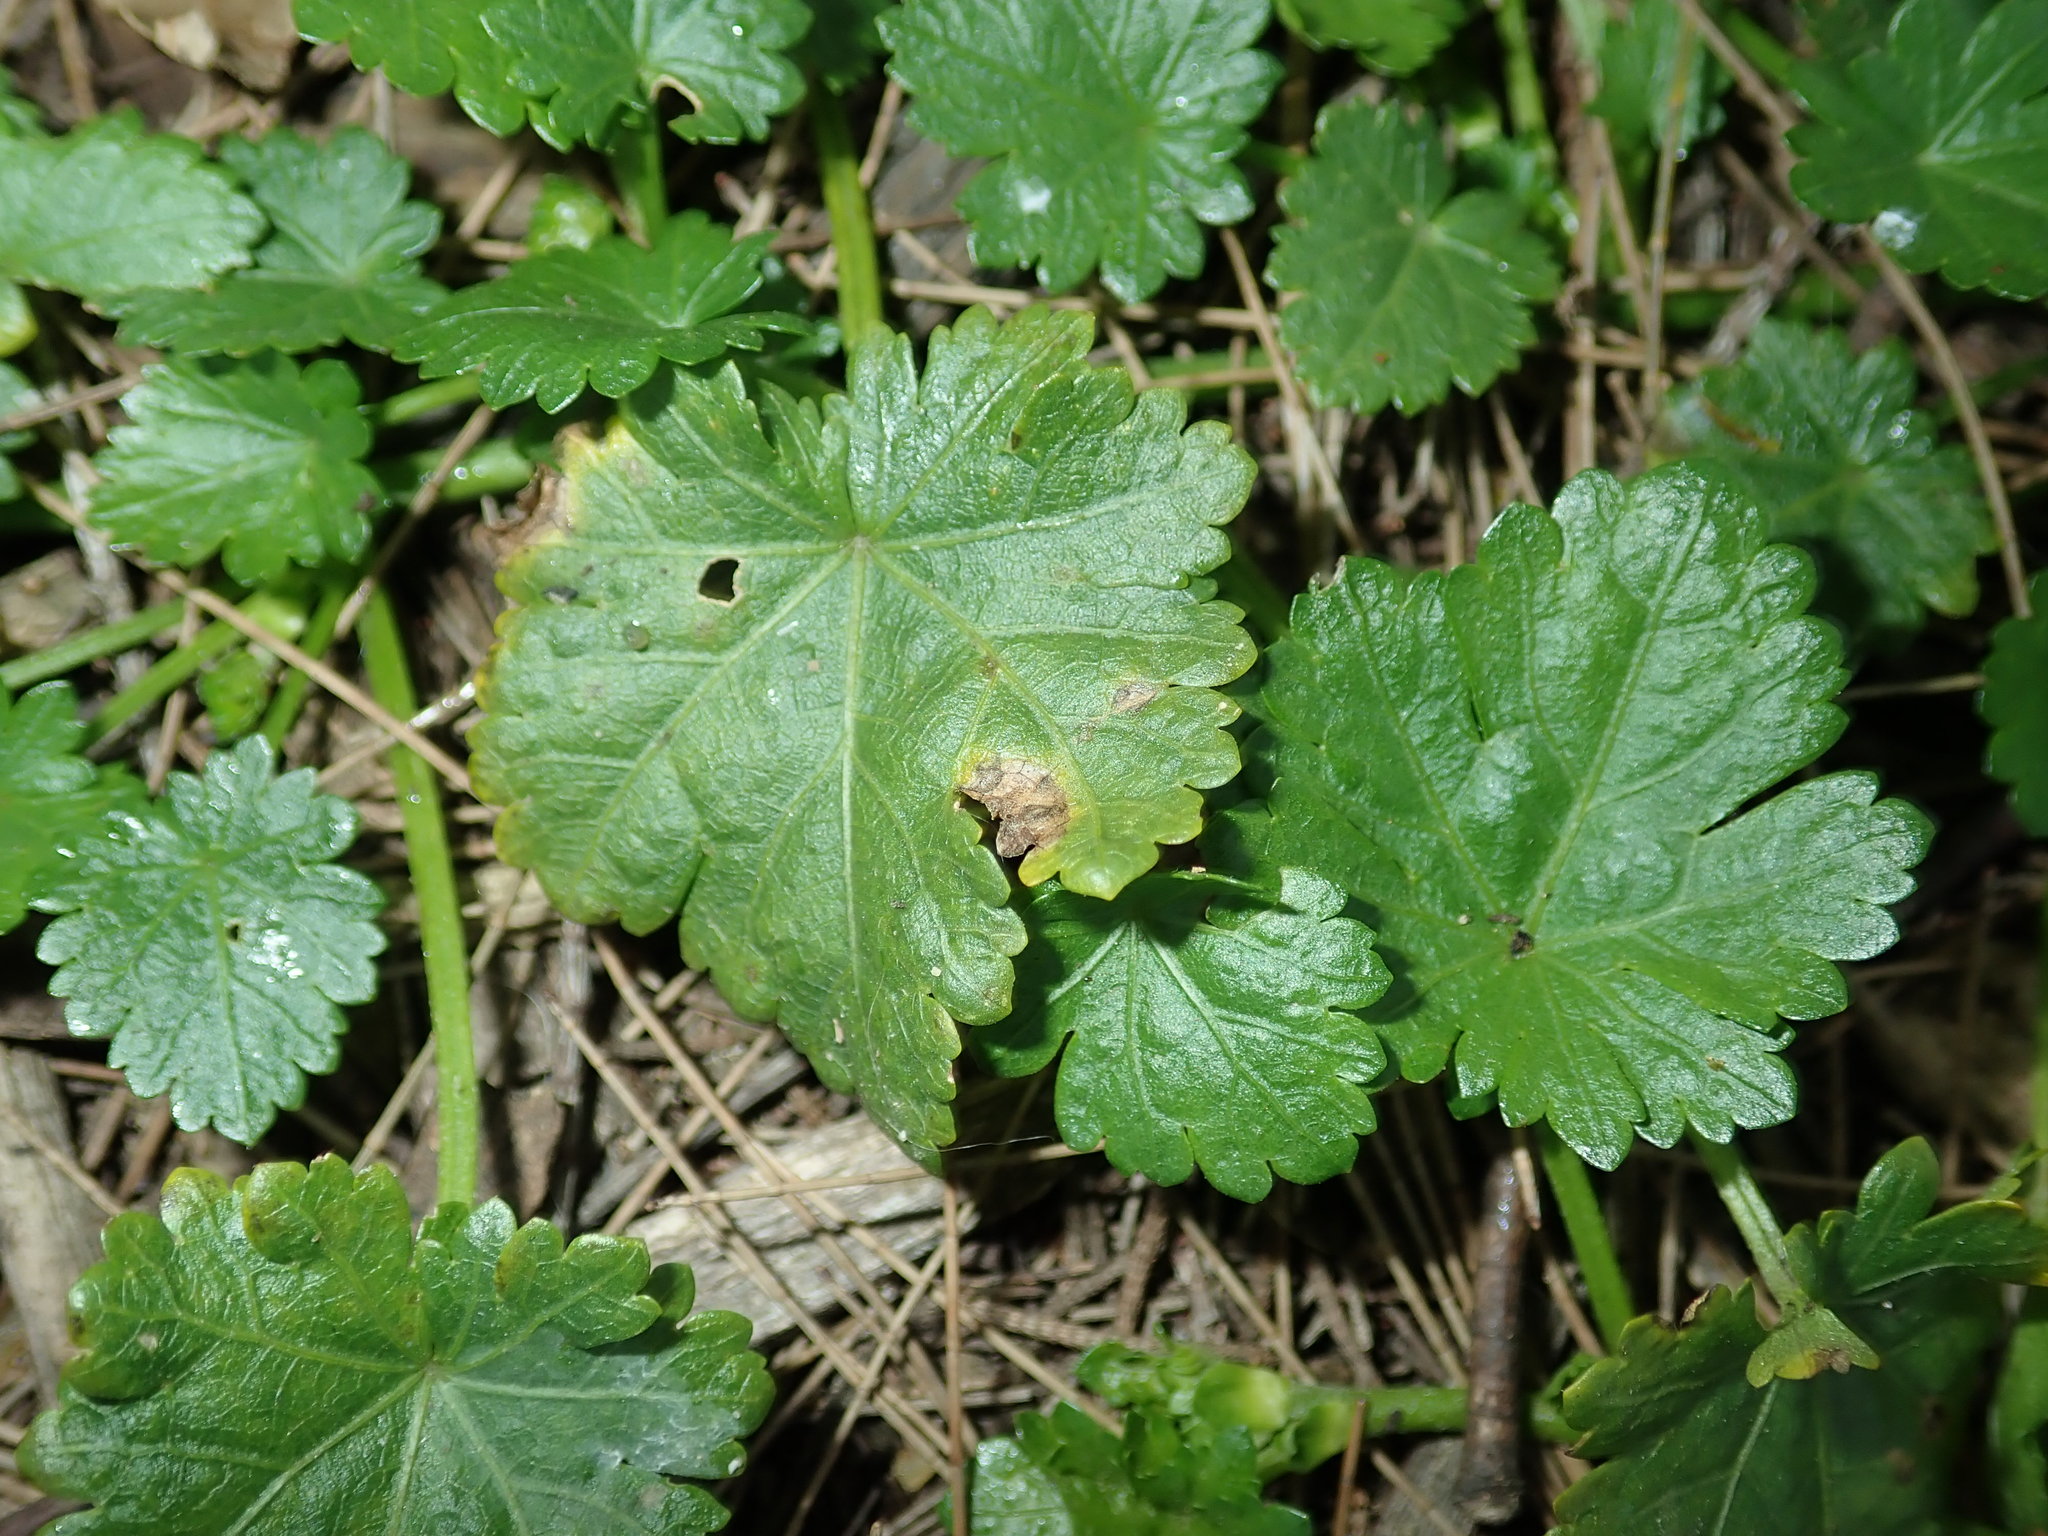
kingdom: Plantae
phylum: Tracheophyta
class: Magnoliopsida
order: Malvales
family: Malvaceae
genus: Modiola
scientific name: Modiola caroliniana
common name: Carolina bristlemallow
